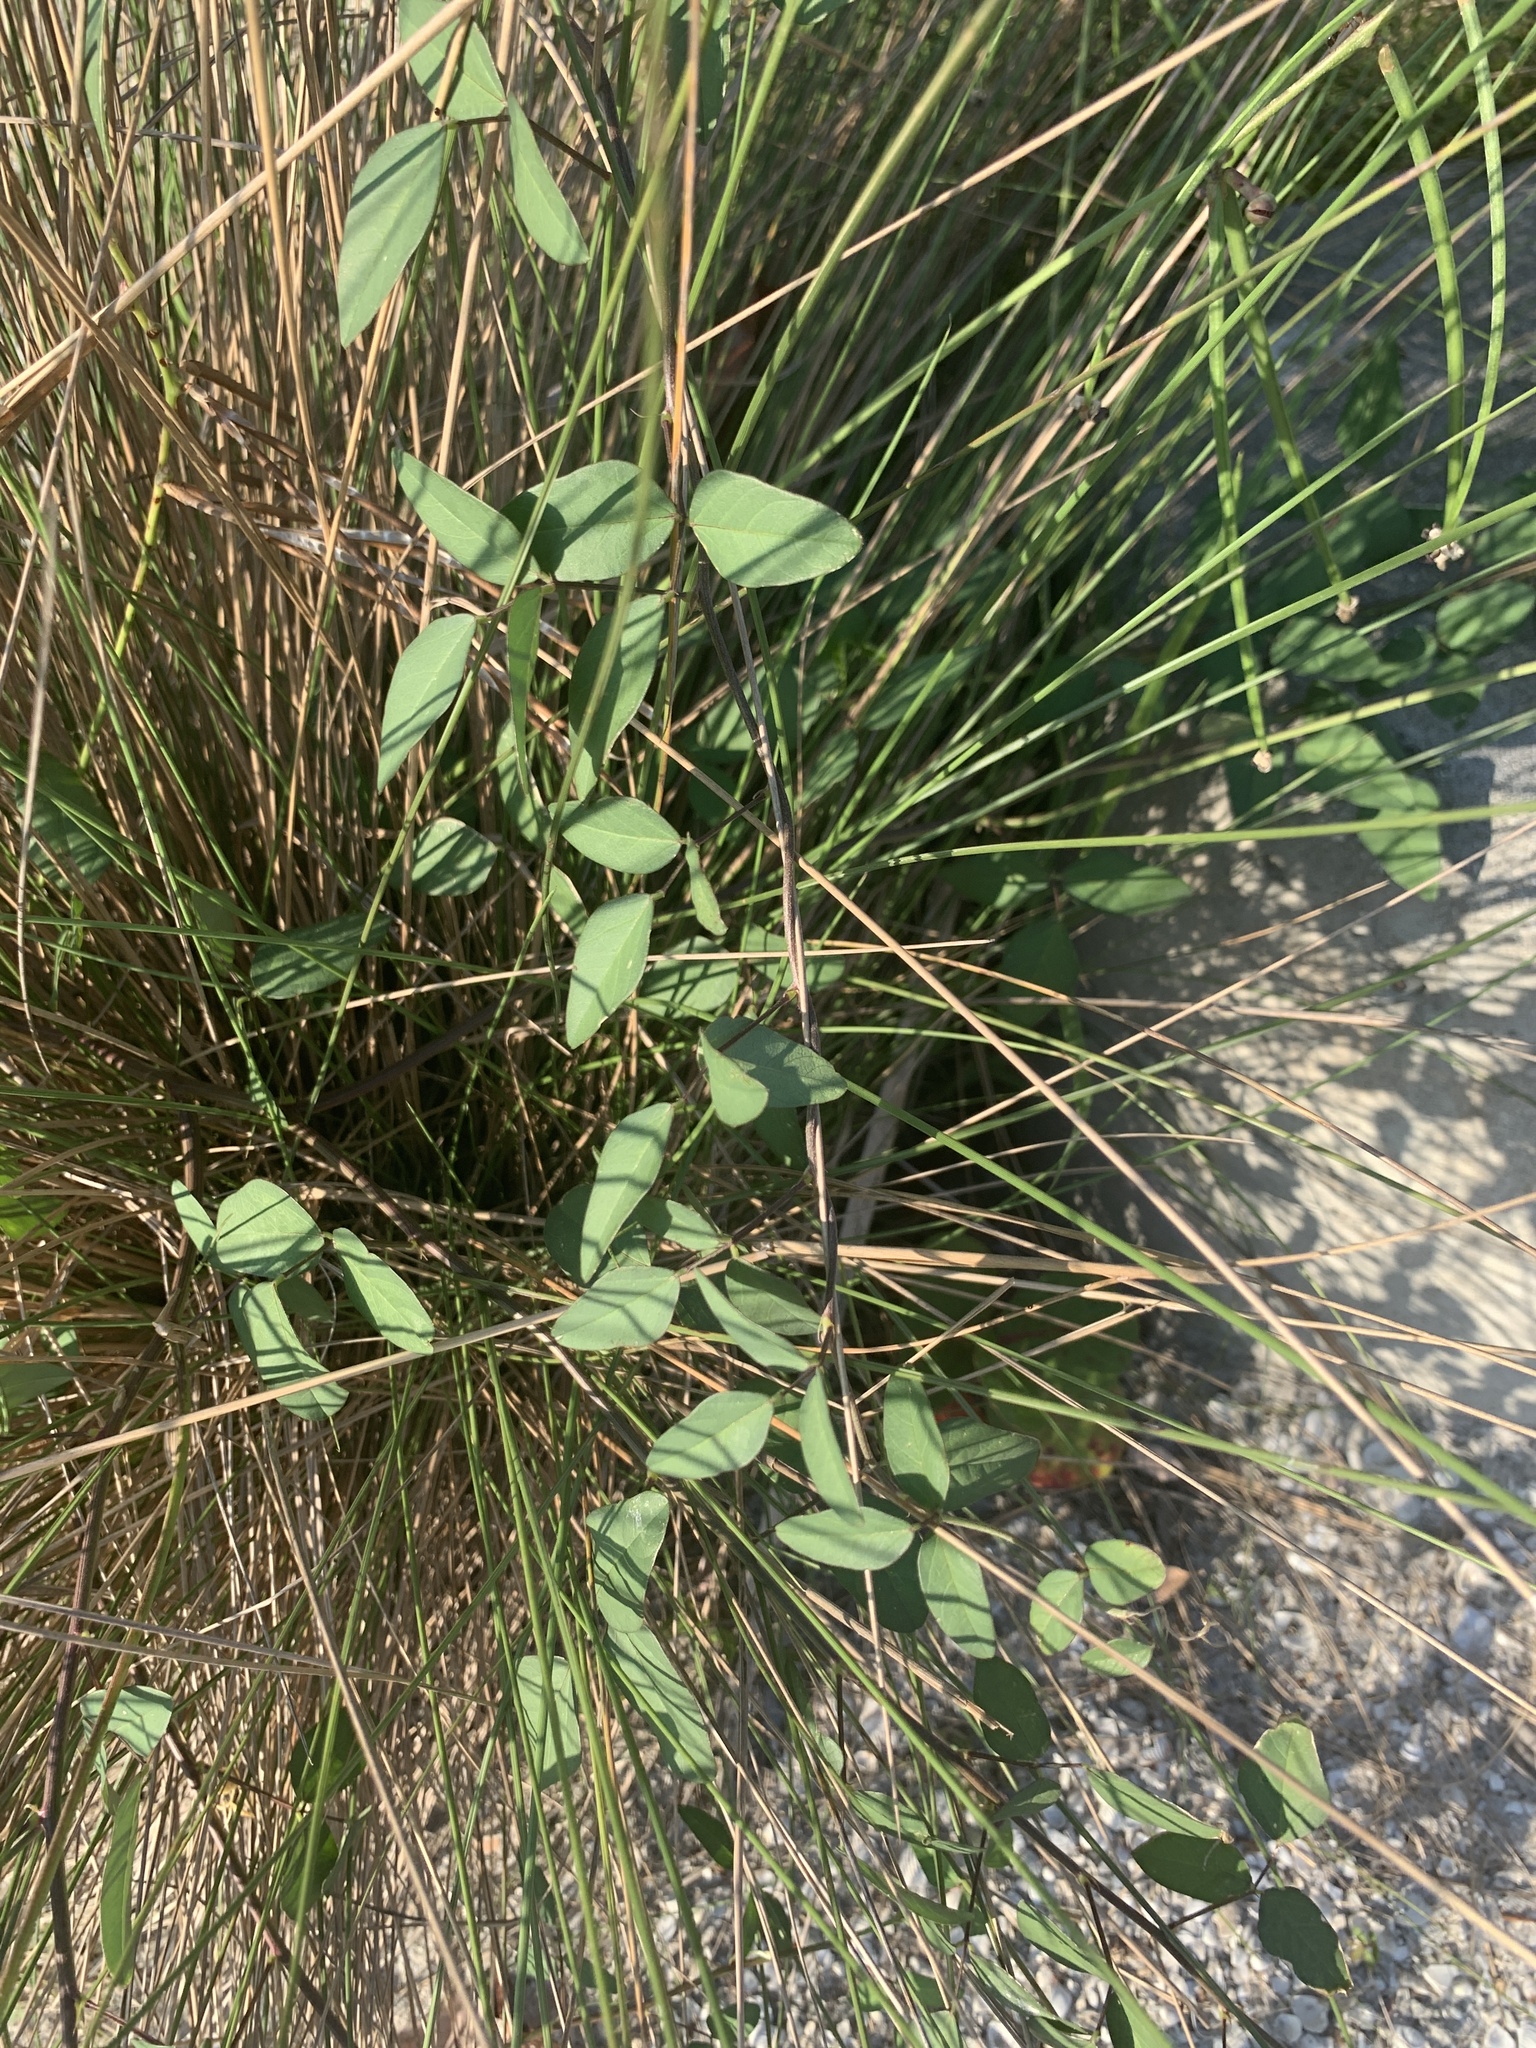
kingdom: Plantae
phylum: Tracheophyta
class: Magnoliopsida
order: Fabales
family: Fabaceae
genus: Macroptilium
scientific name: Macroptilium lathyroides
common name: Wild bushbean
